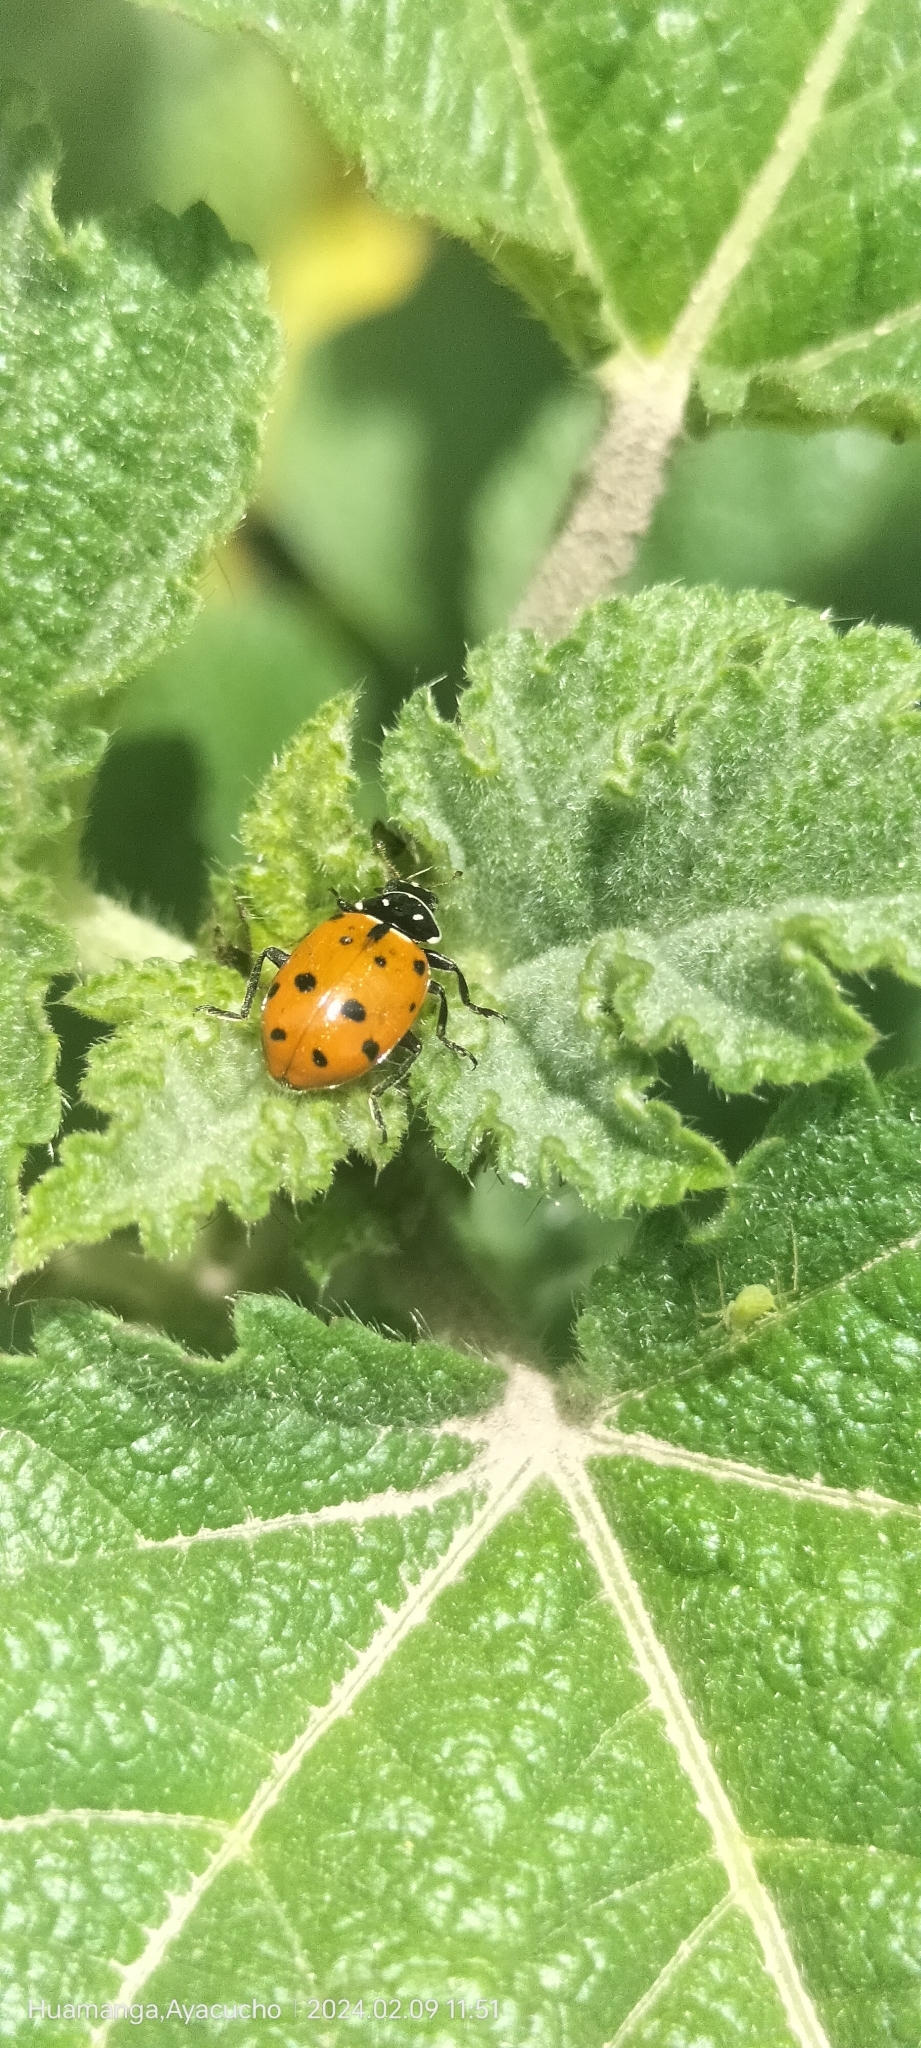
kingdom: Animalia
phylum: Arthropoda
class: Insecta
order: Coleoptera
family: Coccinellidae
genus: Hippodamia
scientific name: Hippodamia convergens
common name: Convergent lady beetle
